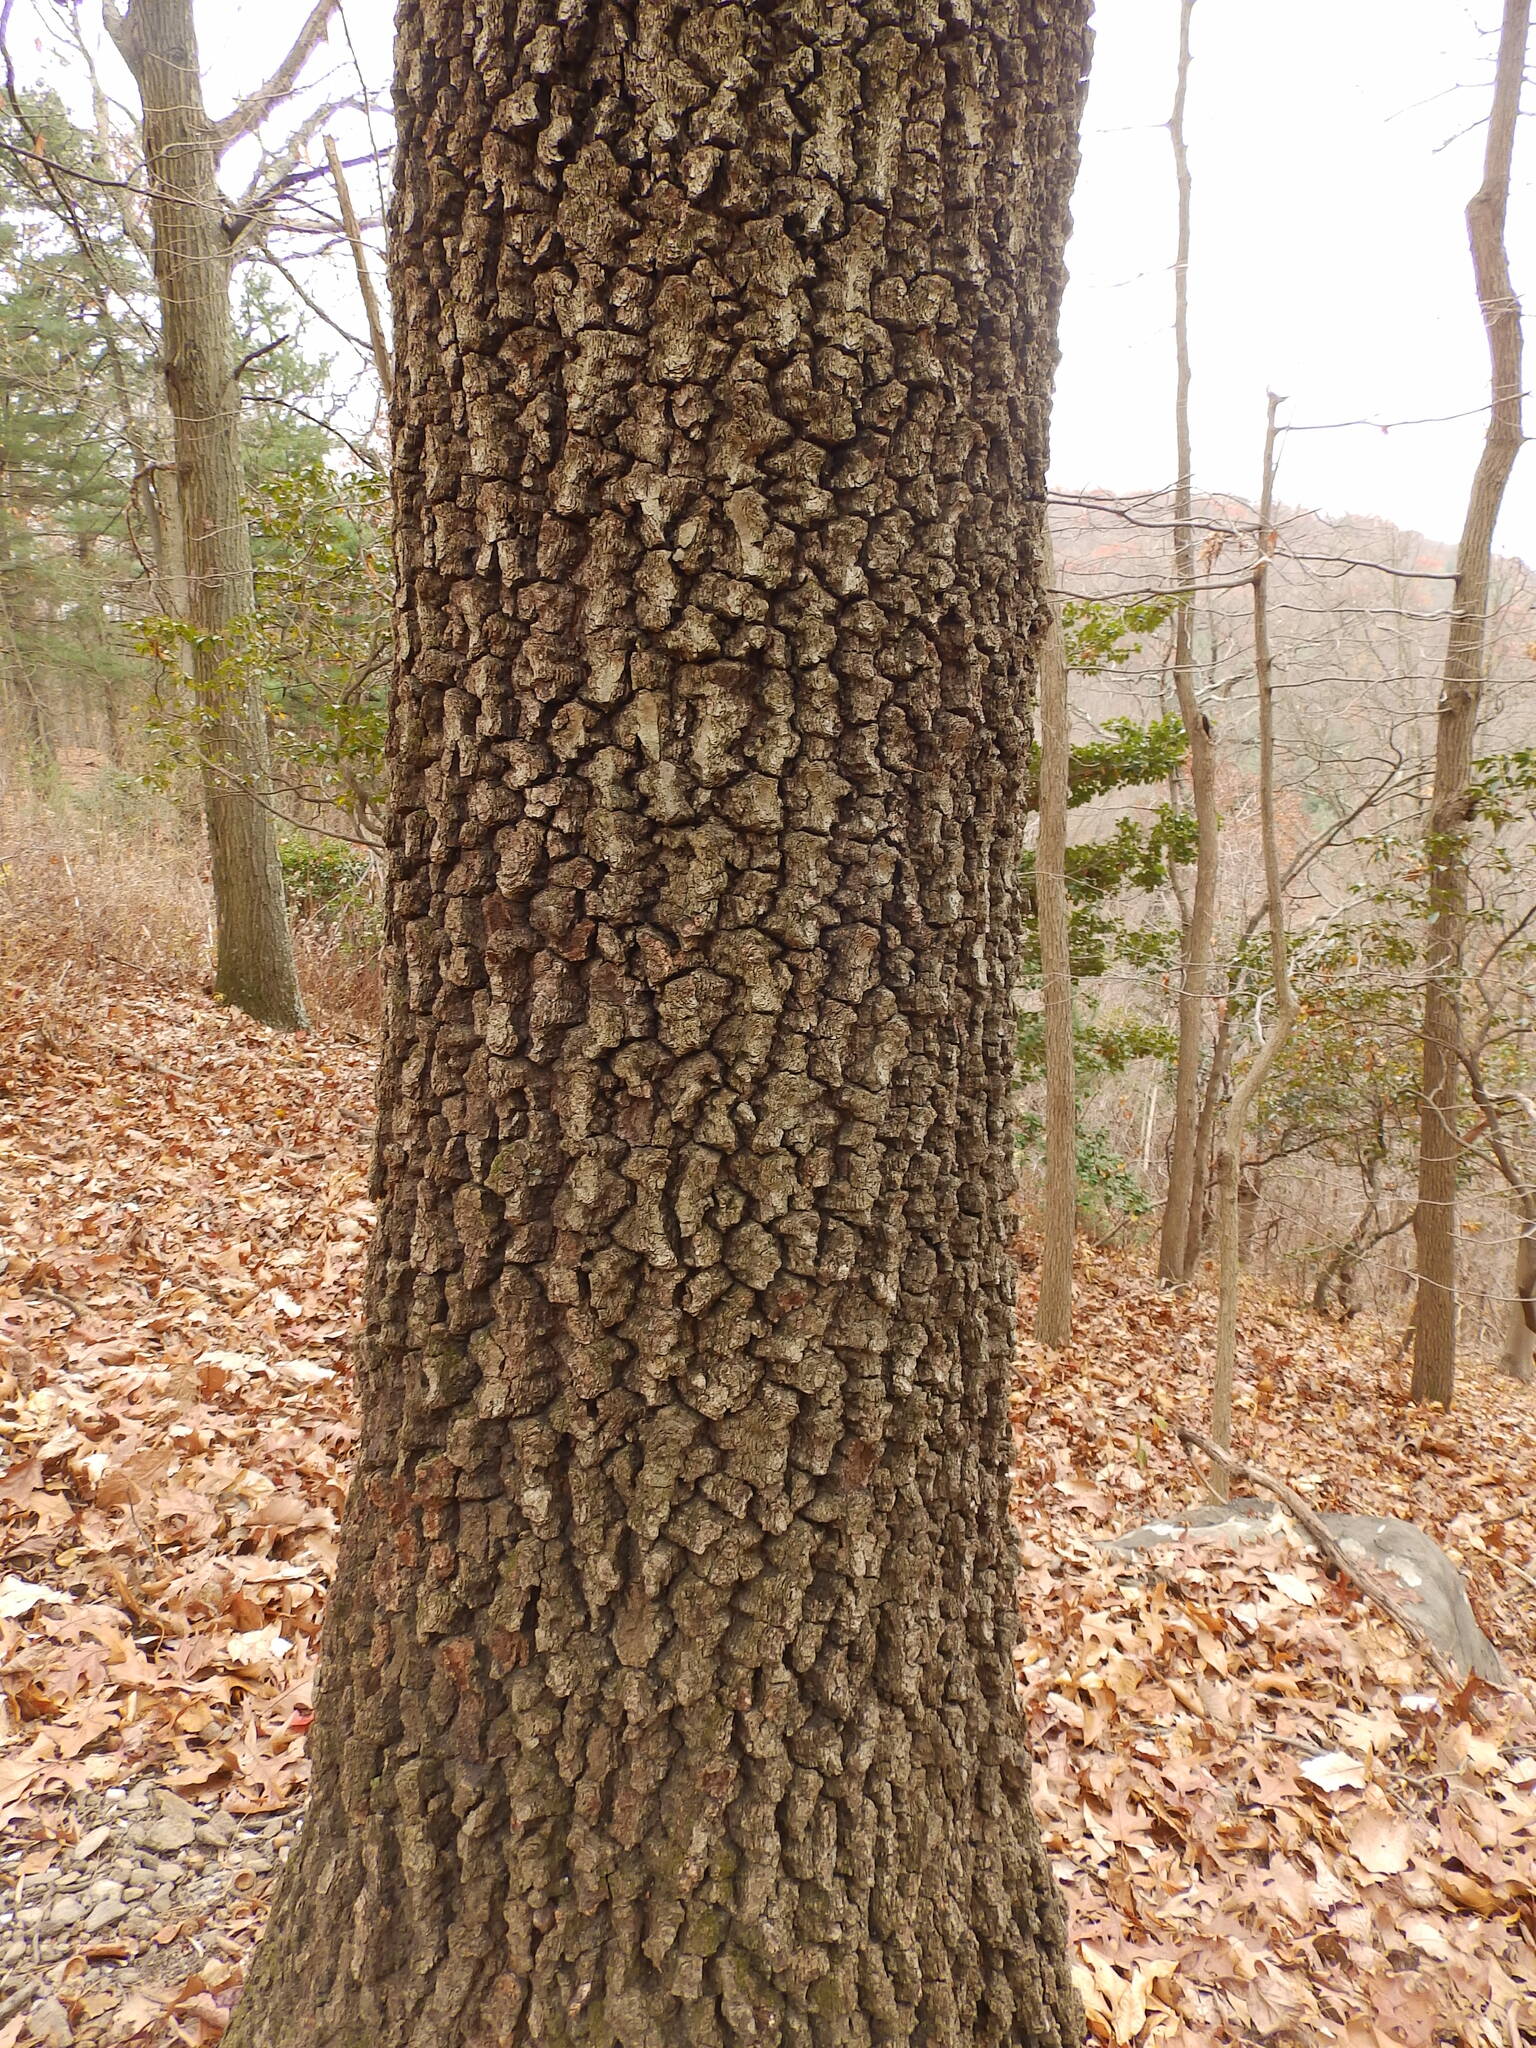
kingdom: Plantae
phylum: Tracheophyta
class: Magnoliopsida
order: Fagales
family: Fagaceae
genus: Quercus
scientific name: Quercus coccinea
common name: Scarlet oak
